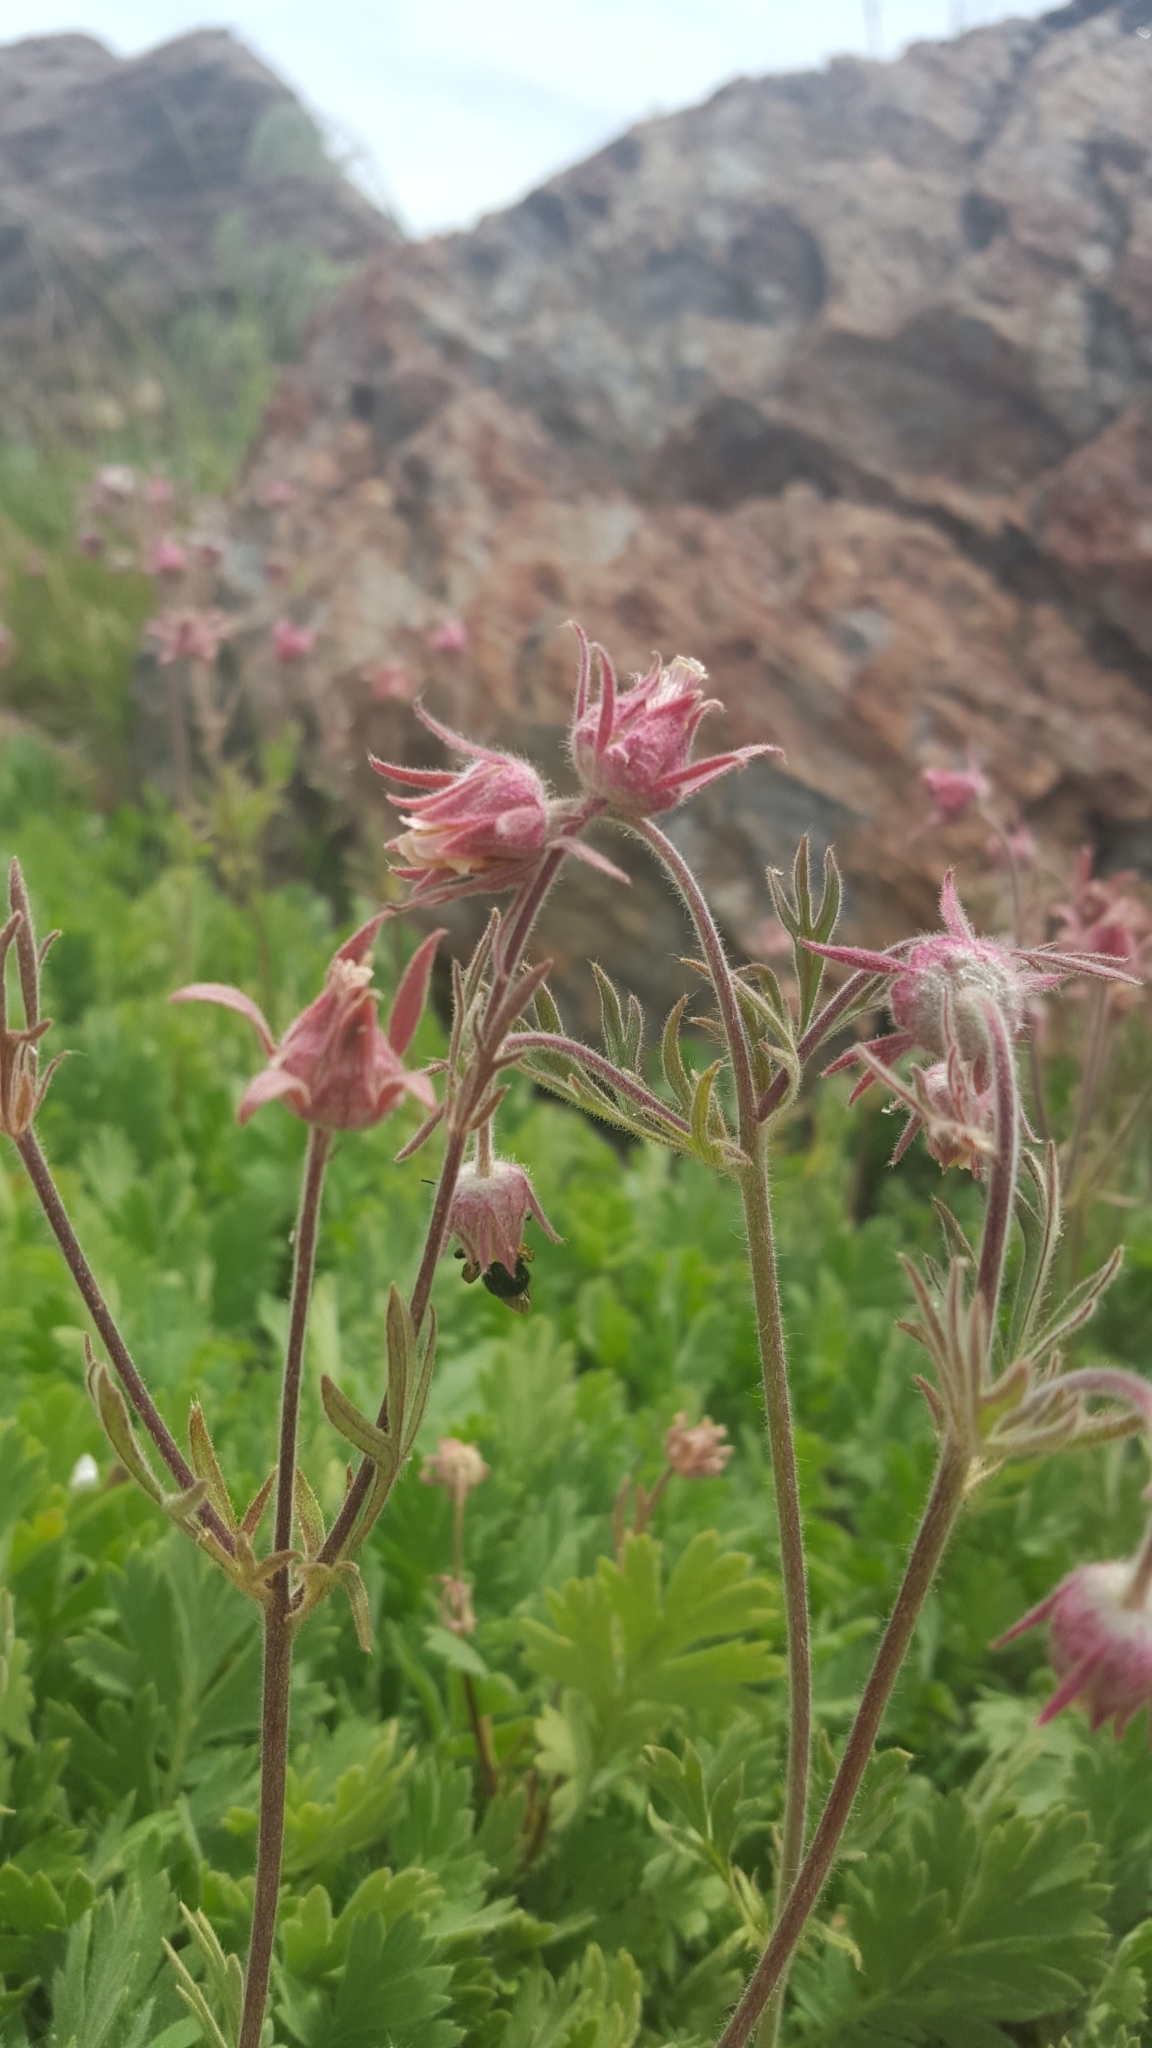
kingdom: Plantae
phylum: Tracheophyta
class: Magnoliopsida
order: Rosales
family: Rosaceae
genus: Geum
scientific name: Geum triflorum
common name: Old man's whiskers
